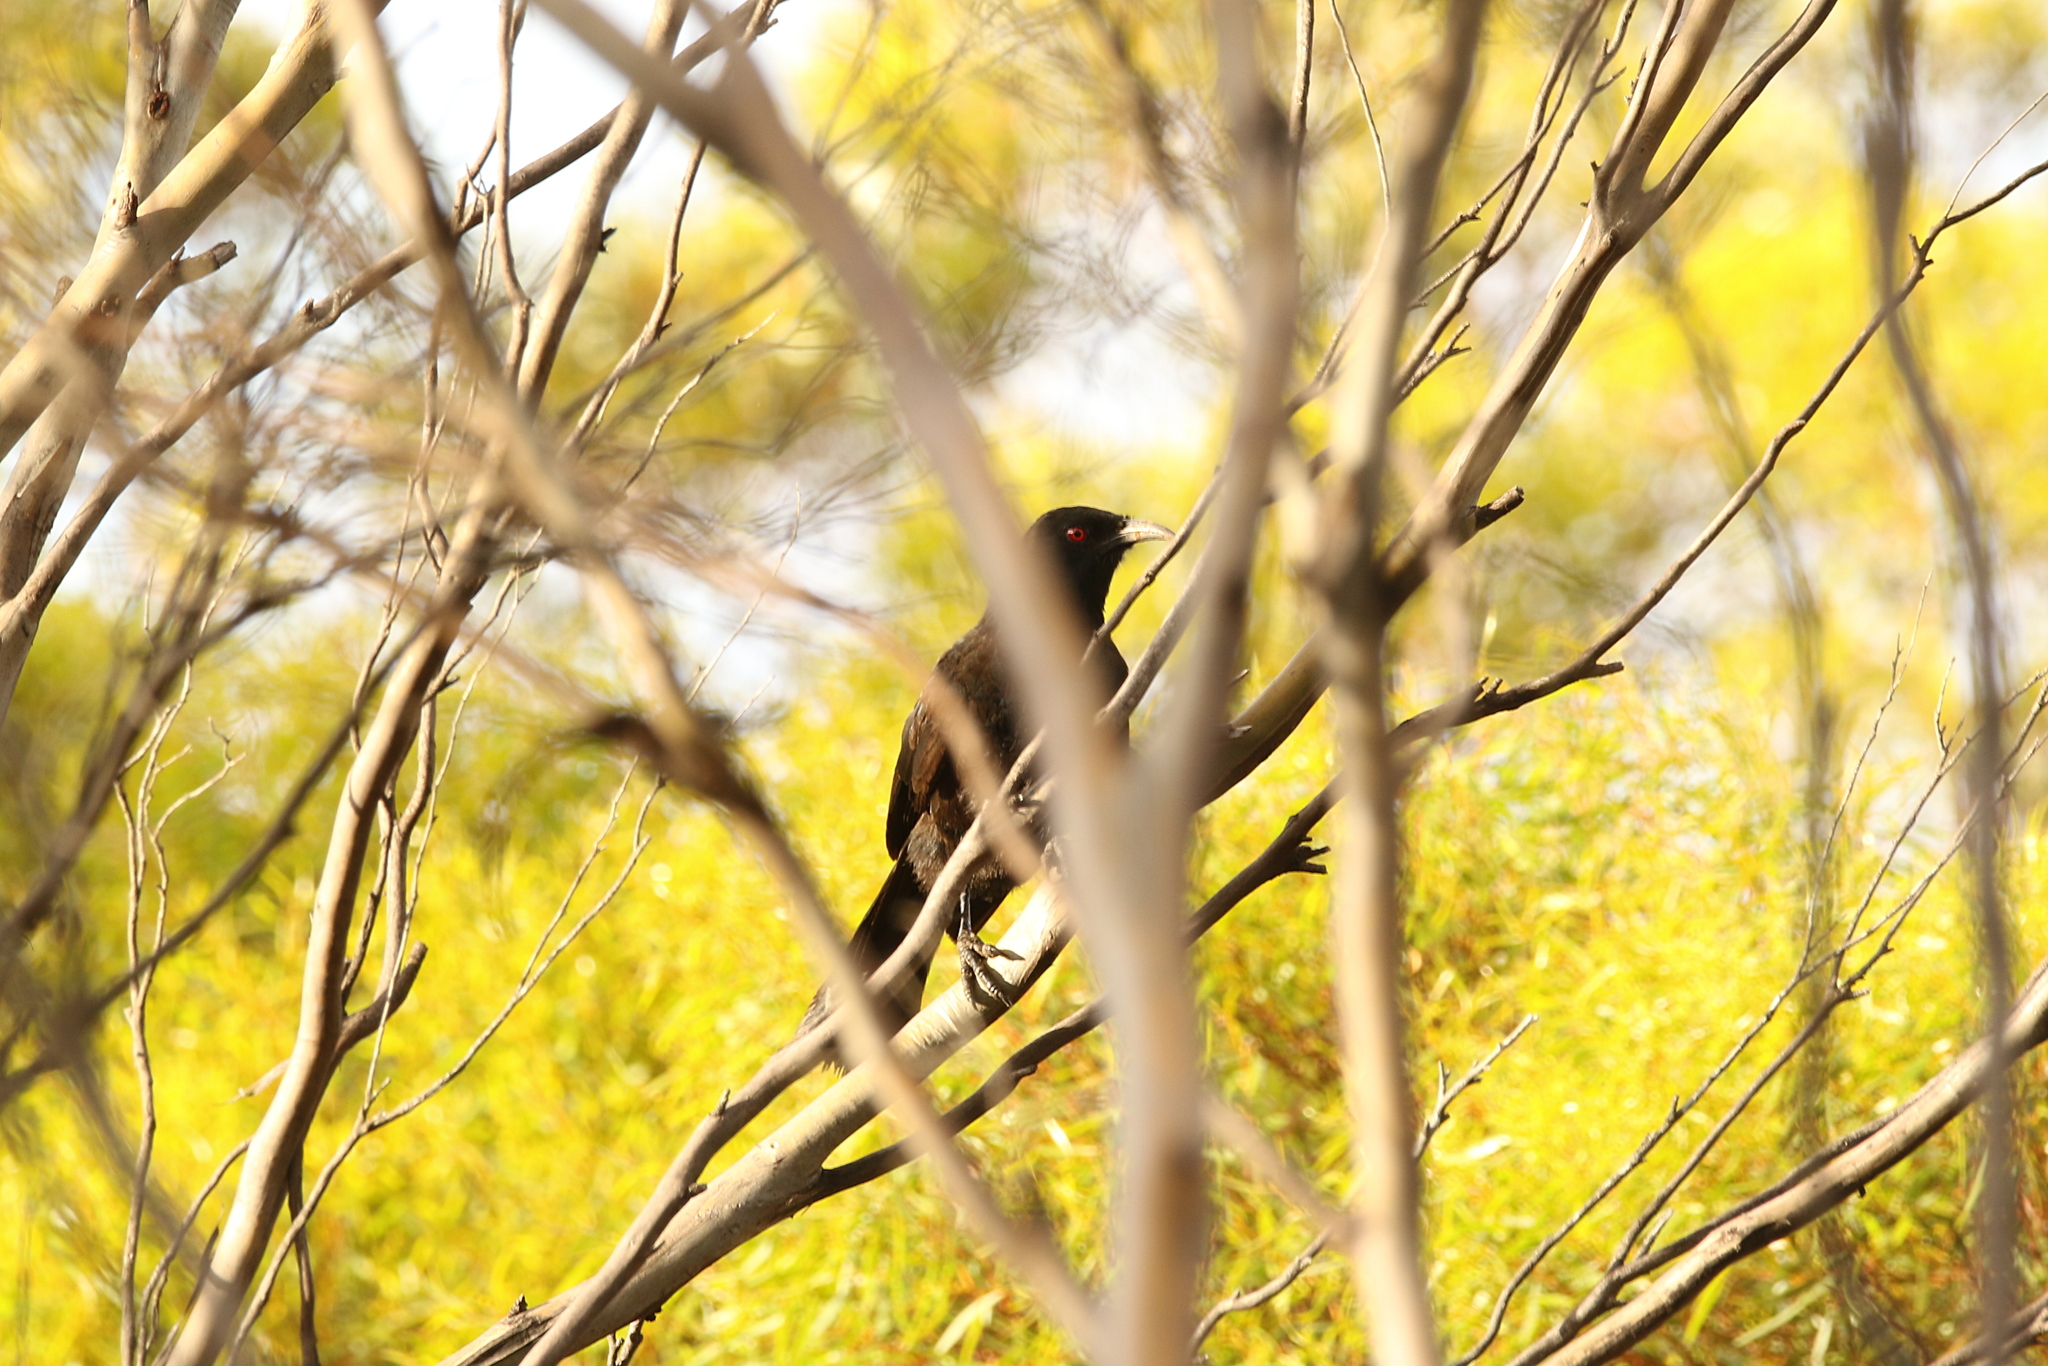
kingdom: Animalia
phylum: Chordata
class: Aves
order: Passeriformes
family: Corcoracidae
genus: Corcorax
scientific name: Corcorax melanoramphos
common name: White-winged chough
